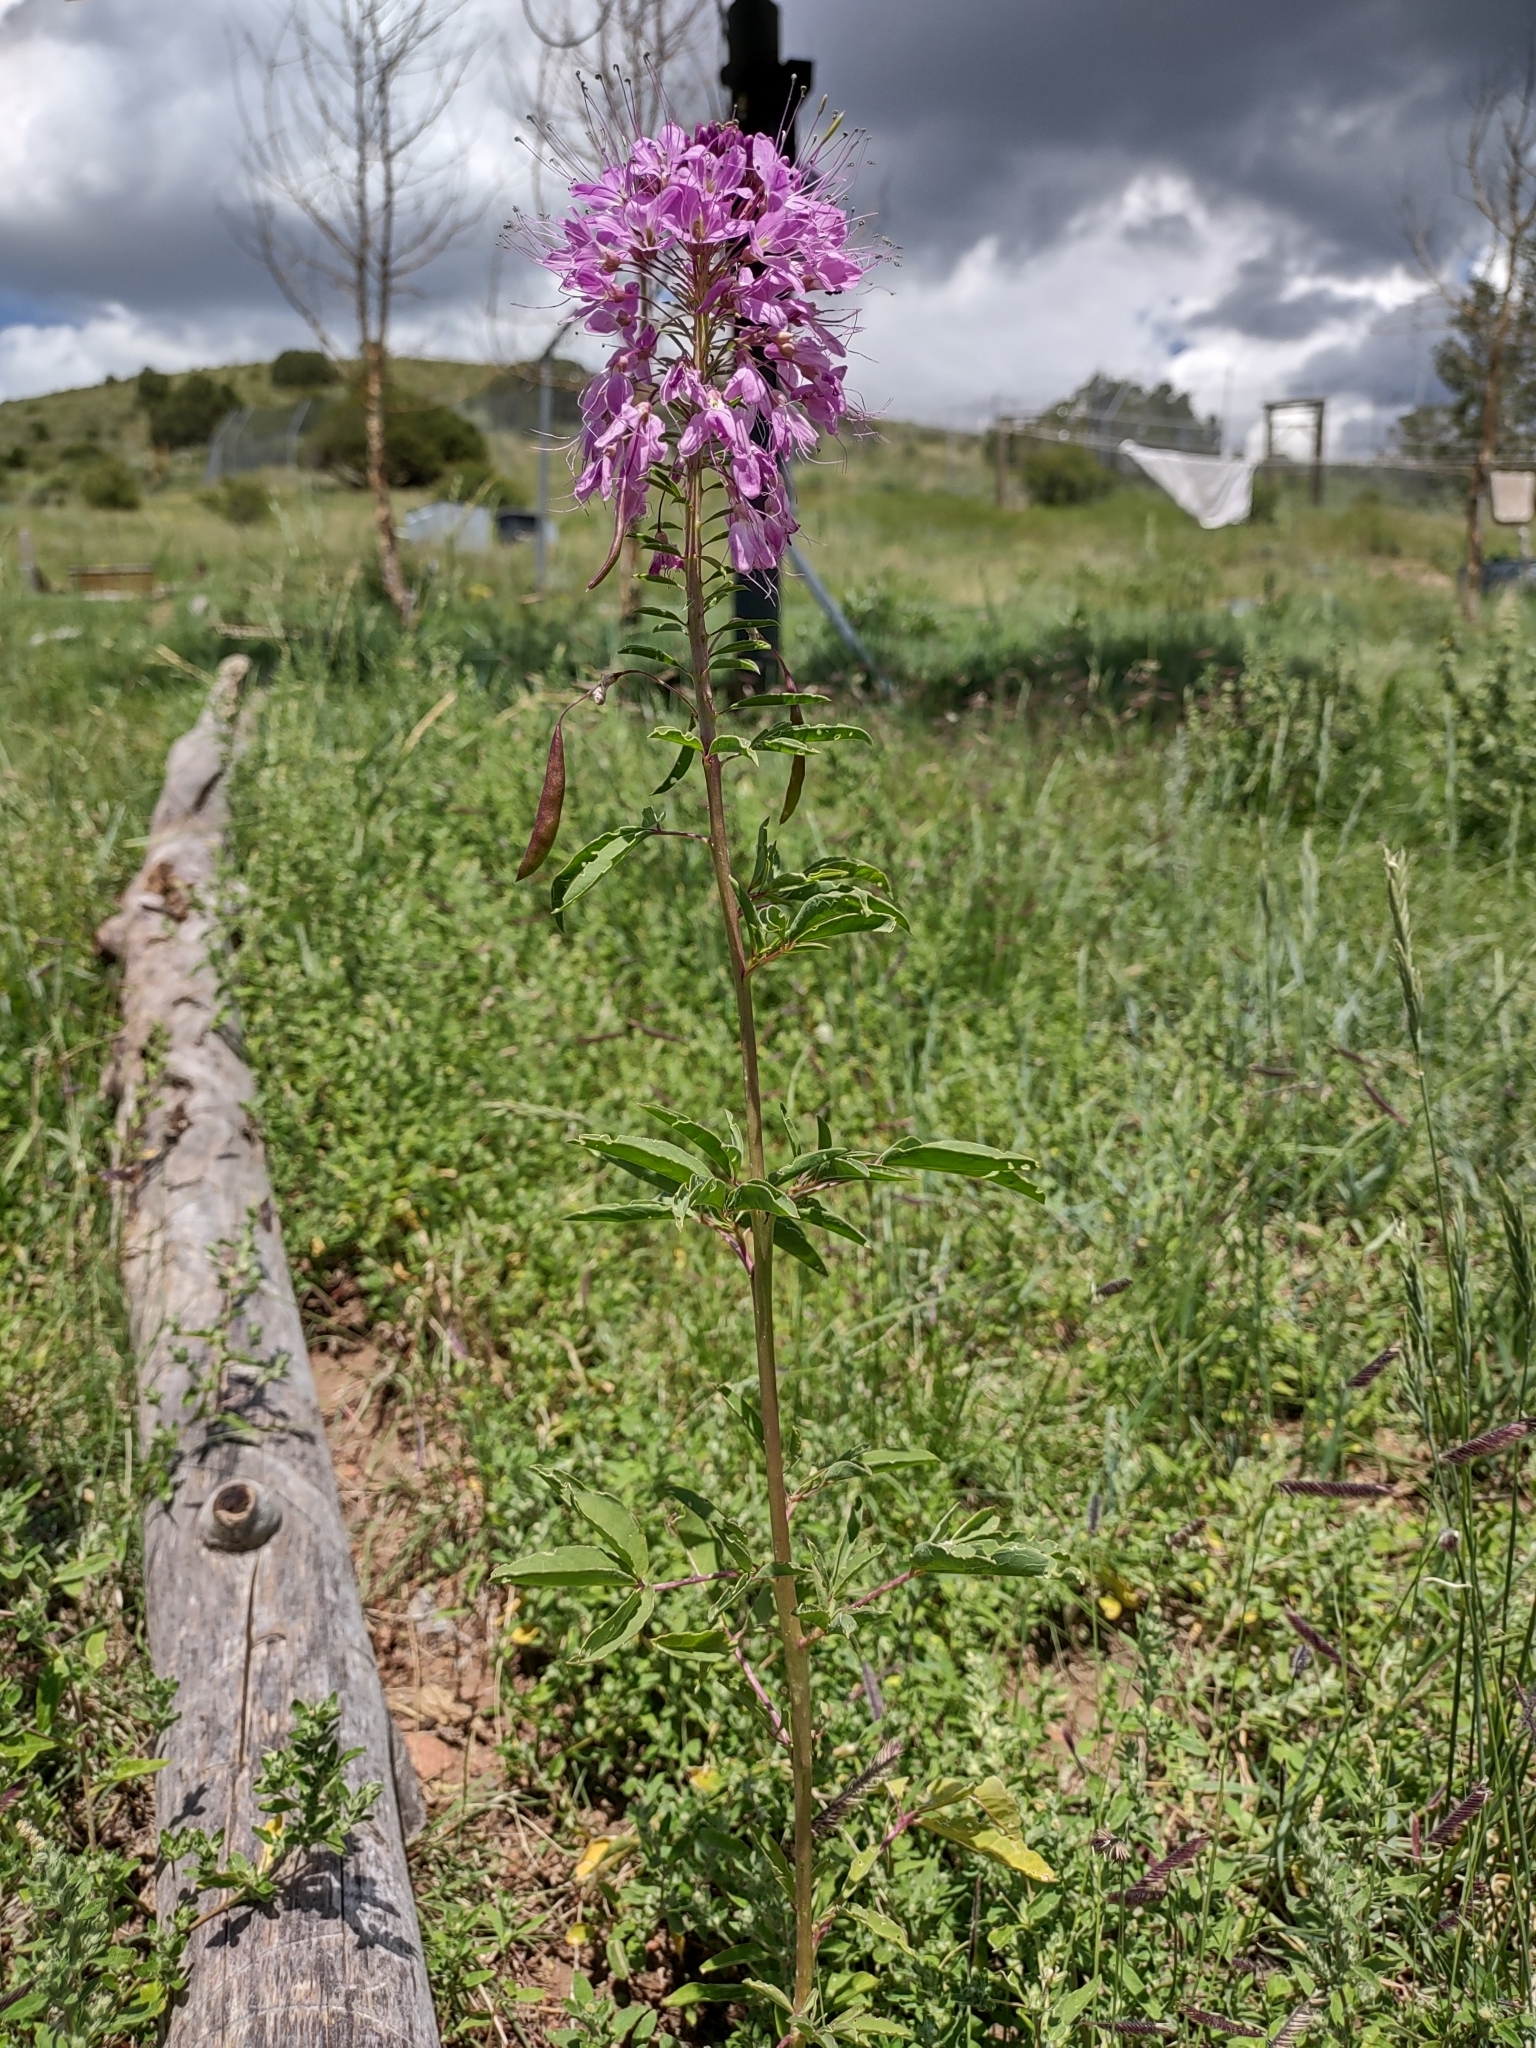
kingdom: Plantae
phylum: Tracheophyta
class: Magnoliopsida
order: Brassicales
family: Cleomaceae
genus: Cleomella
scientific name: Cleomella serrulata
